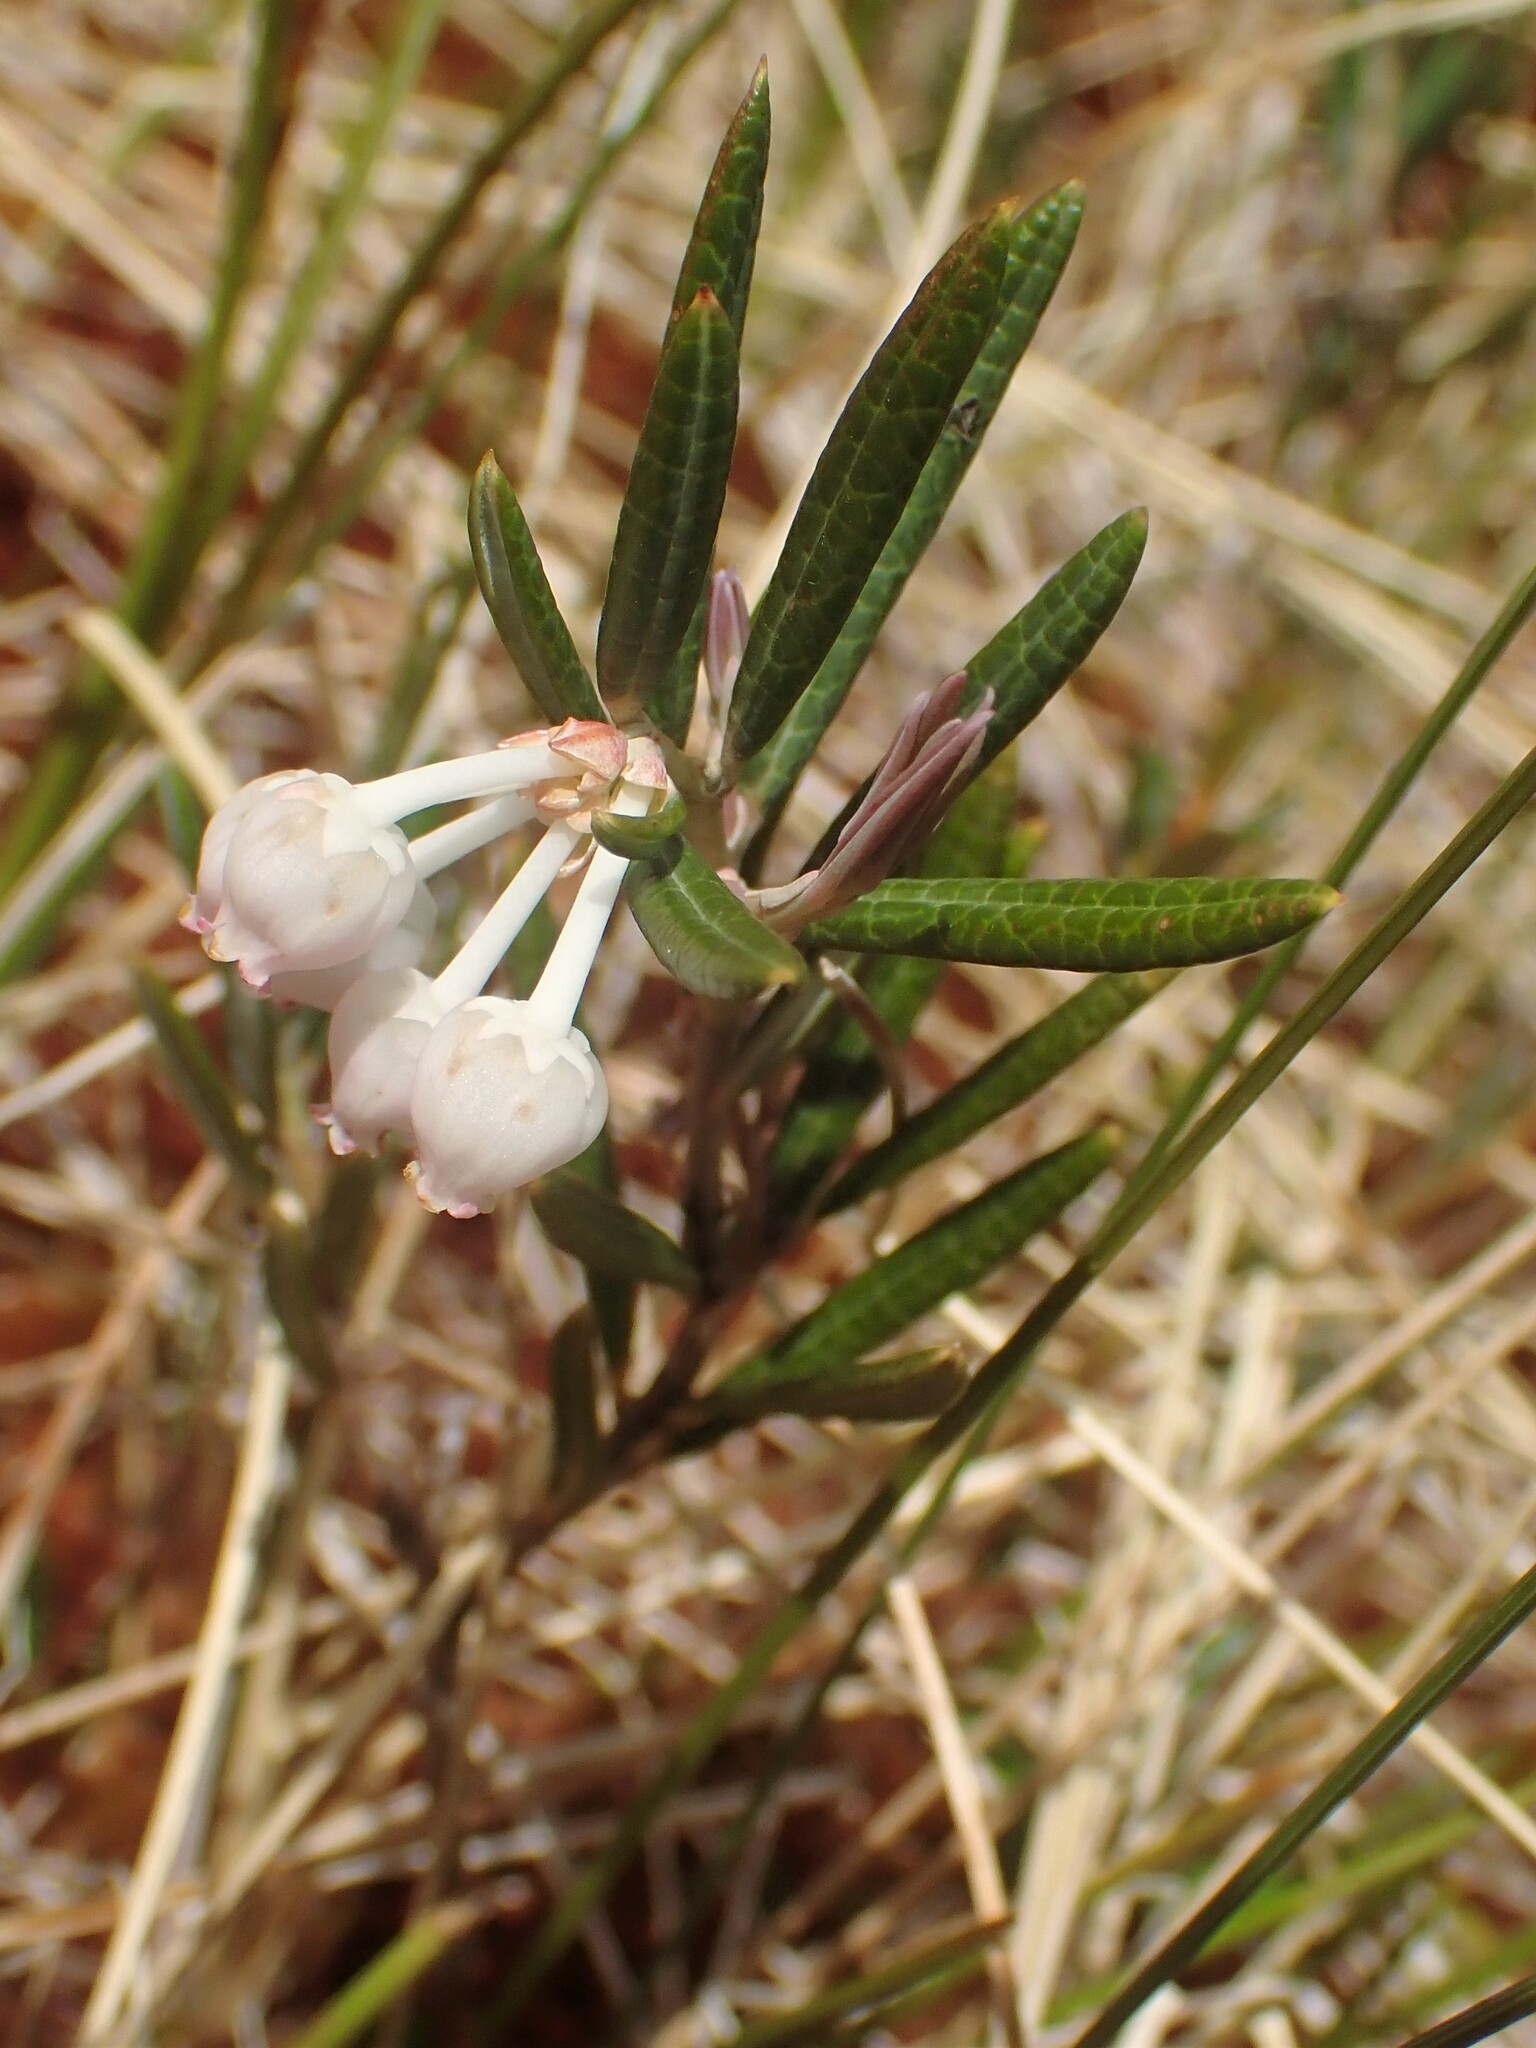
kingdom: Plantae
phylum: Tracheophyta
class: Magnoliopsida
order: Ericales
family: Ericaceae
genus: Andromeda
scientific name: Andromeda polifolia
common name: Bog-rosemary
